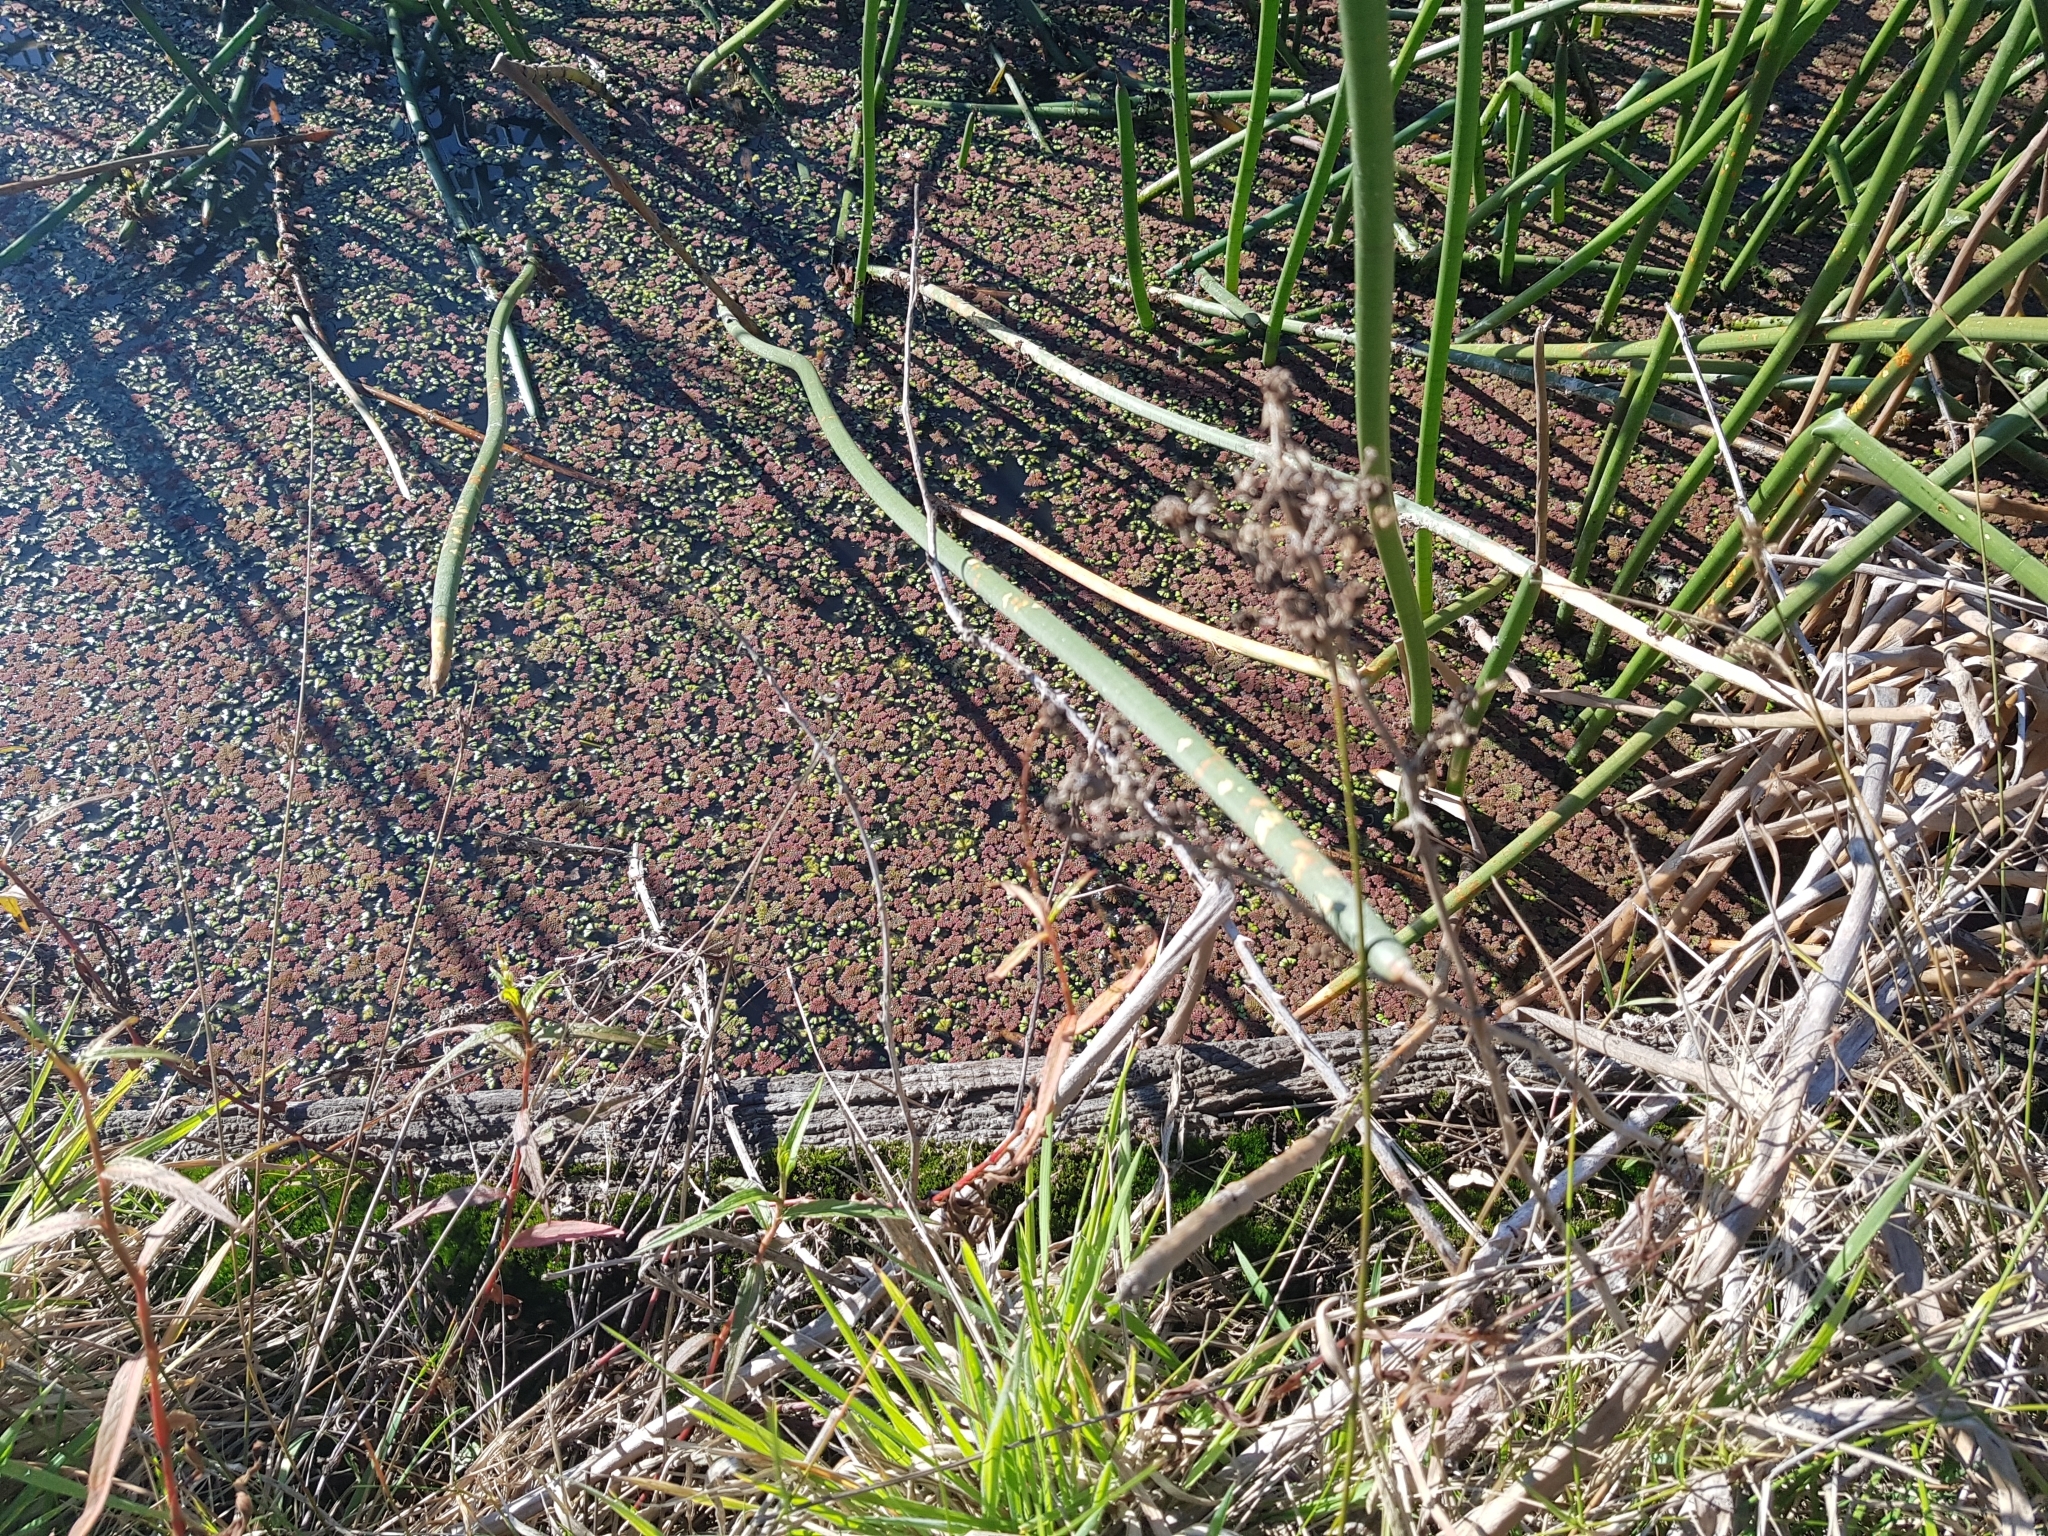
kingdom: Plantae
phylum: Marchantiophyta
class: Marchantiopsida
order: Marchantiales
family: Ricciaceae
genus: Ricciocarpos
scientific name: Ricciocarpos natans
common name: Purple-fringed liverwort
